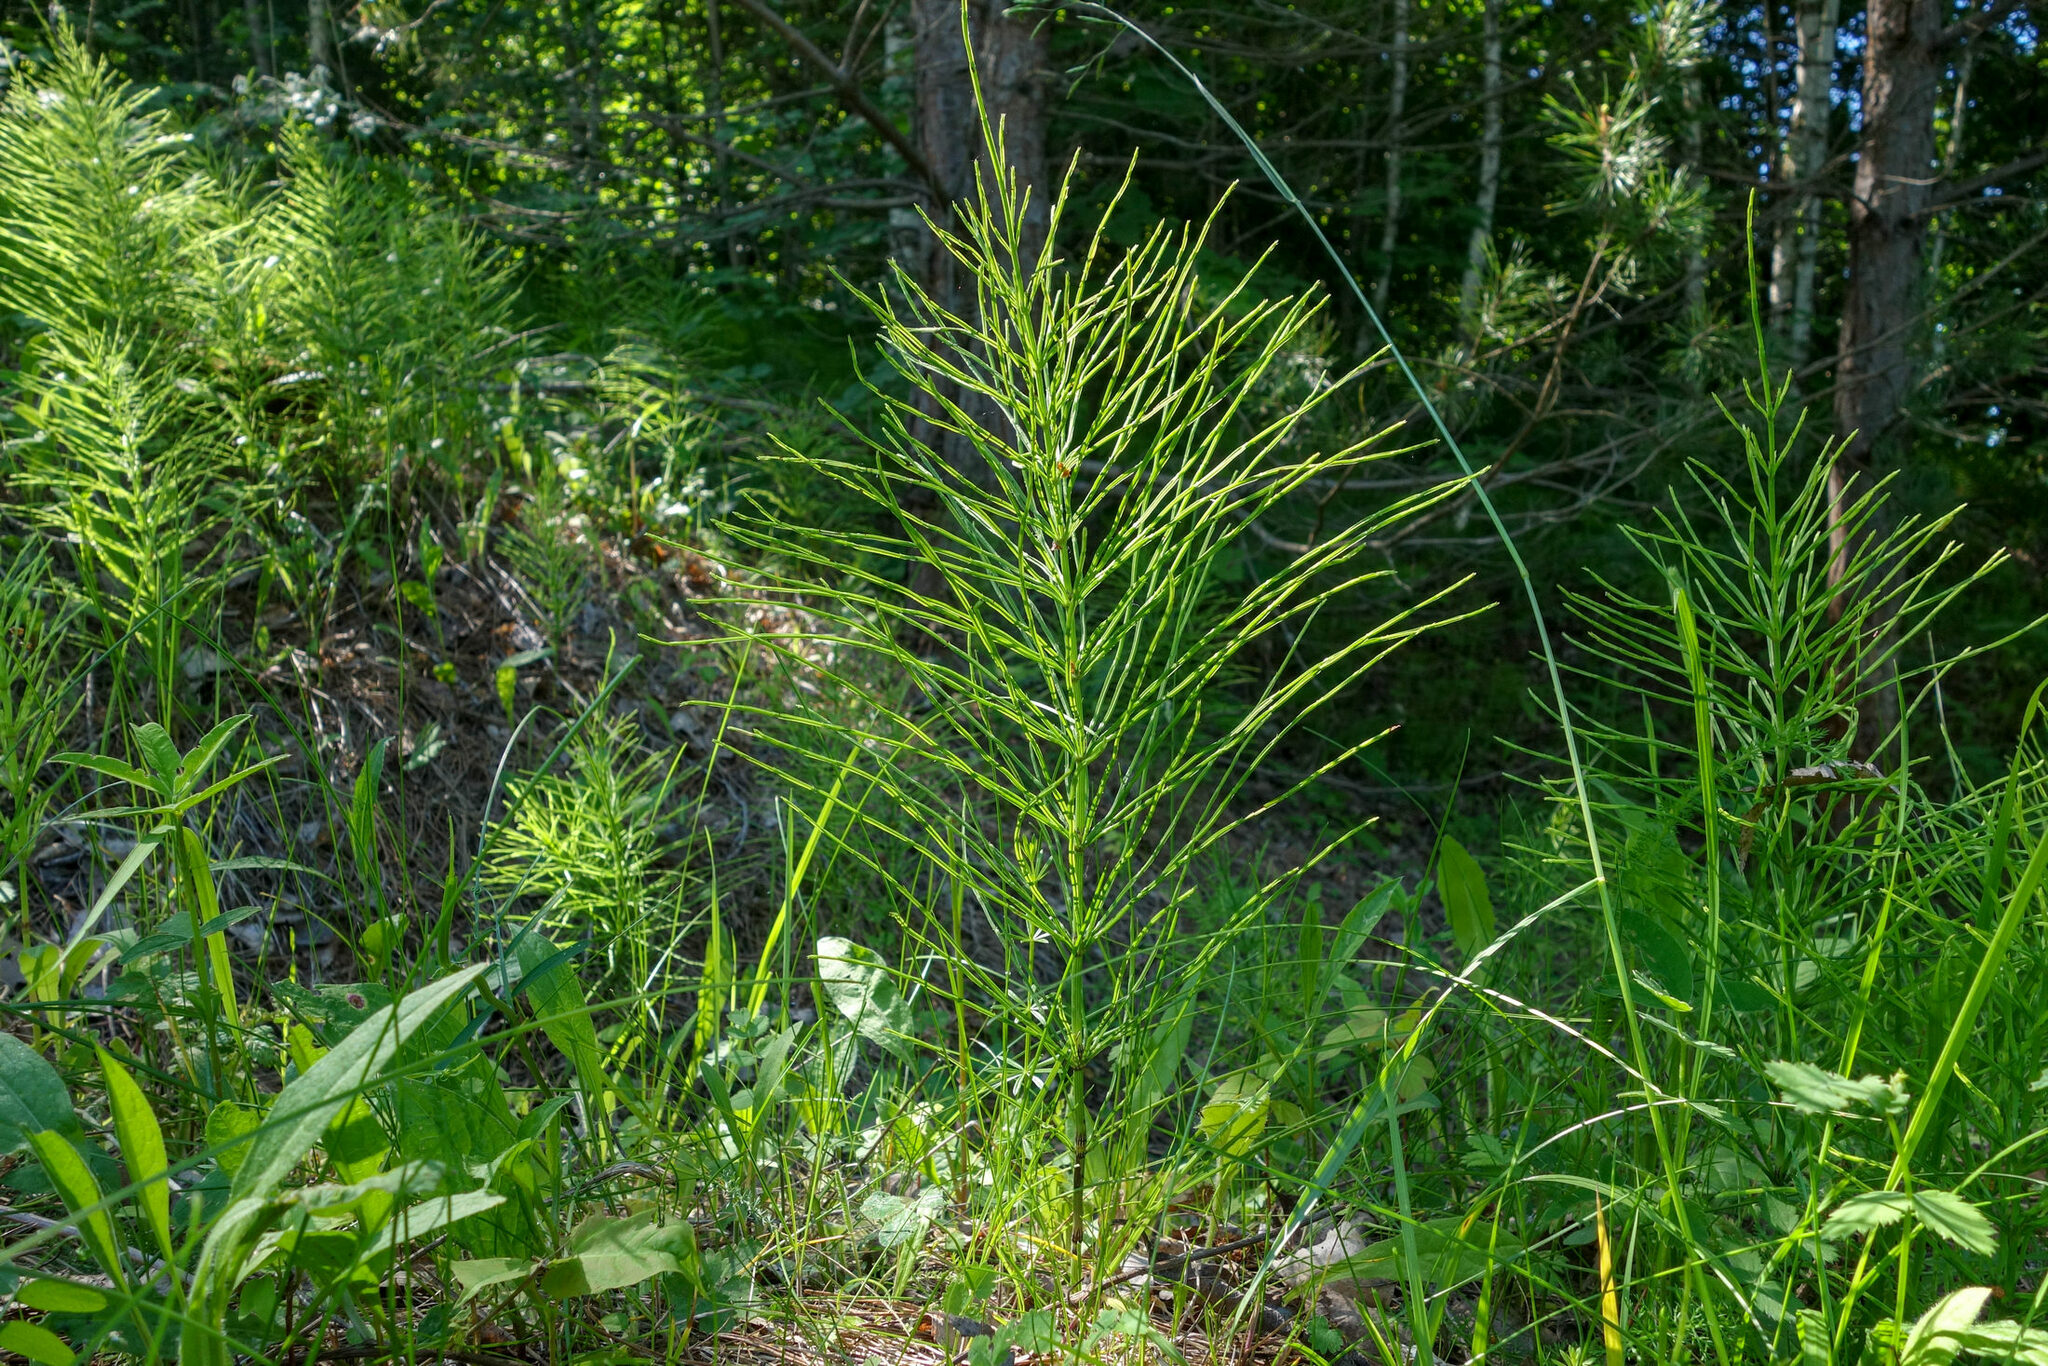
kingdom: Plantae
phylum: Tracheophyta
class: Polypodiopsida
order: Equisetales
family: Equisetaceae
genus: Equisetum
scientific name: Equisetum arvense
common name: Field horsetail
